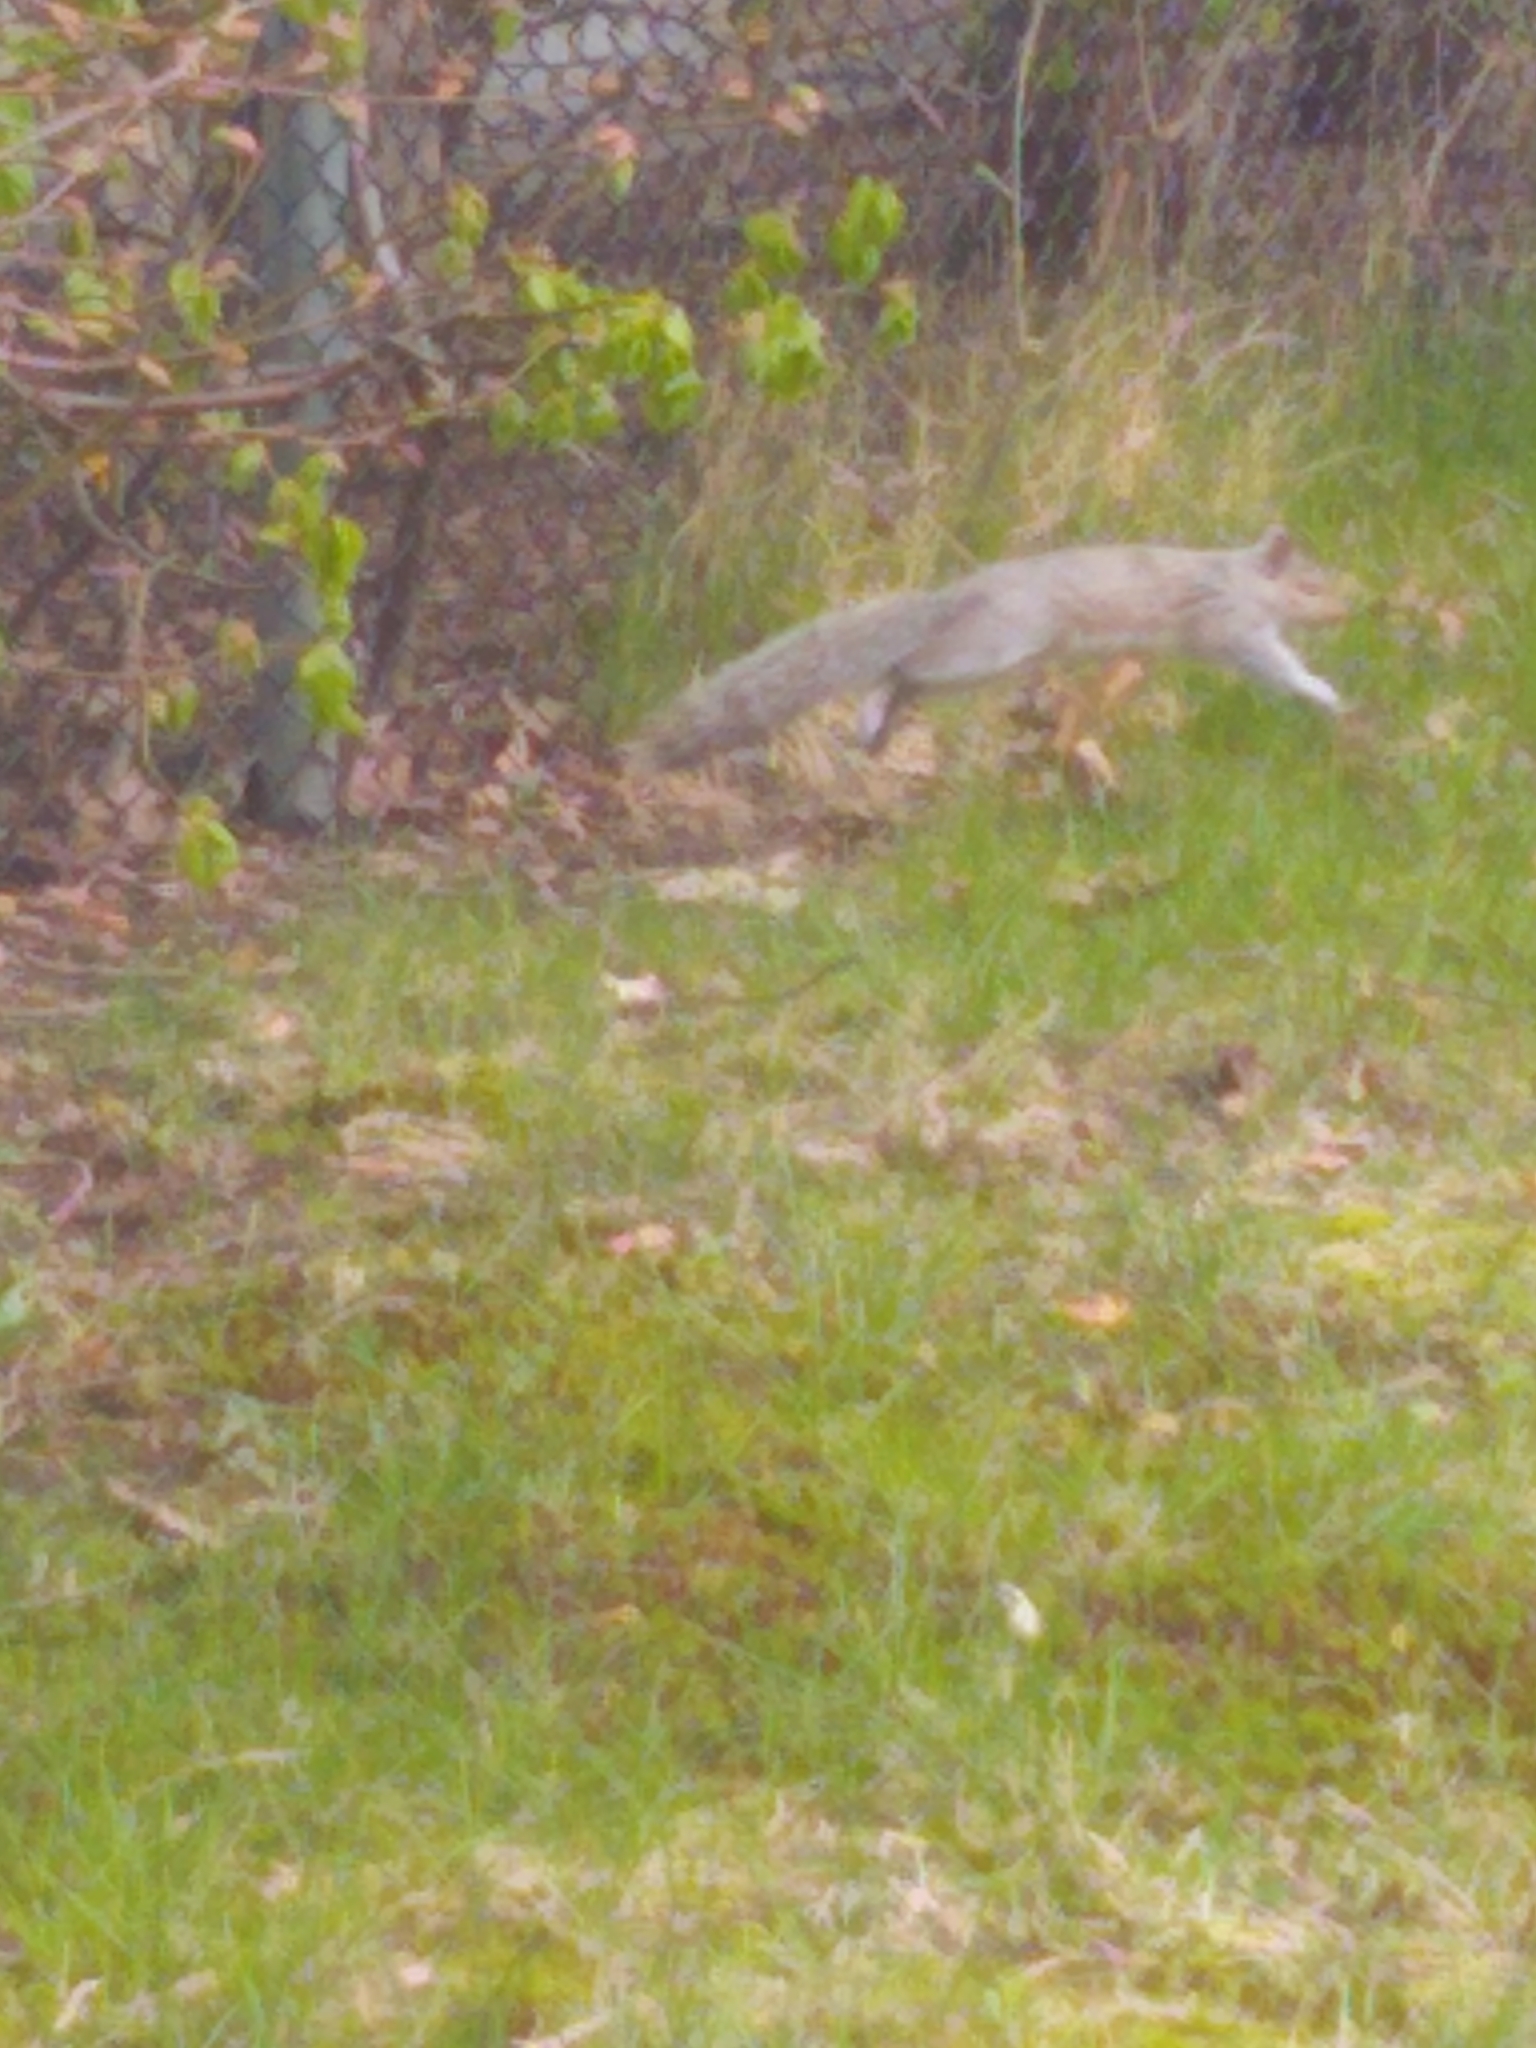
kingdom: Animalia
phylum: Chordata
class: Mammalia
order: Rodentia
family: Sciuridae
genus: Sciurus
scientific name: Sciurus carolinensis
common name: Eastern gray squirrel
